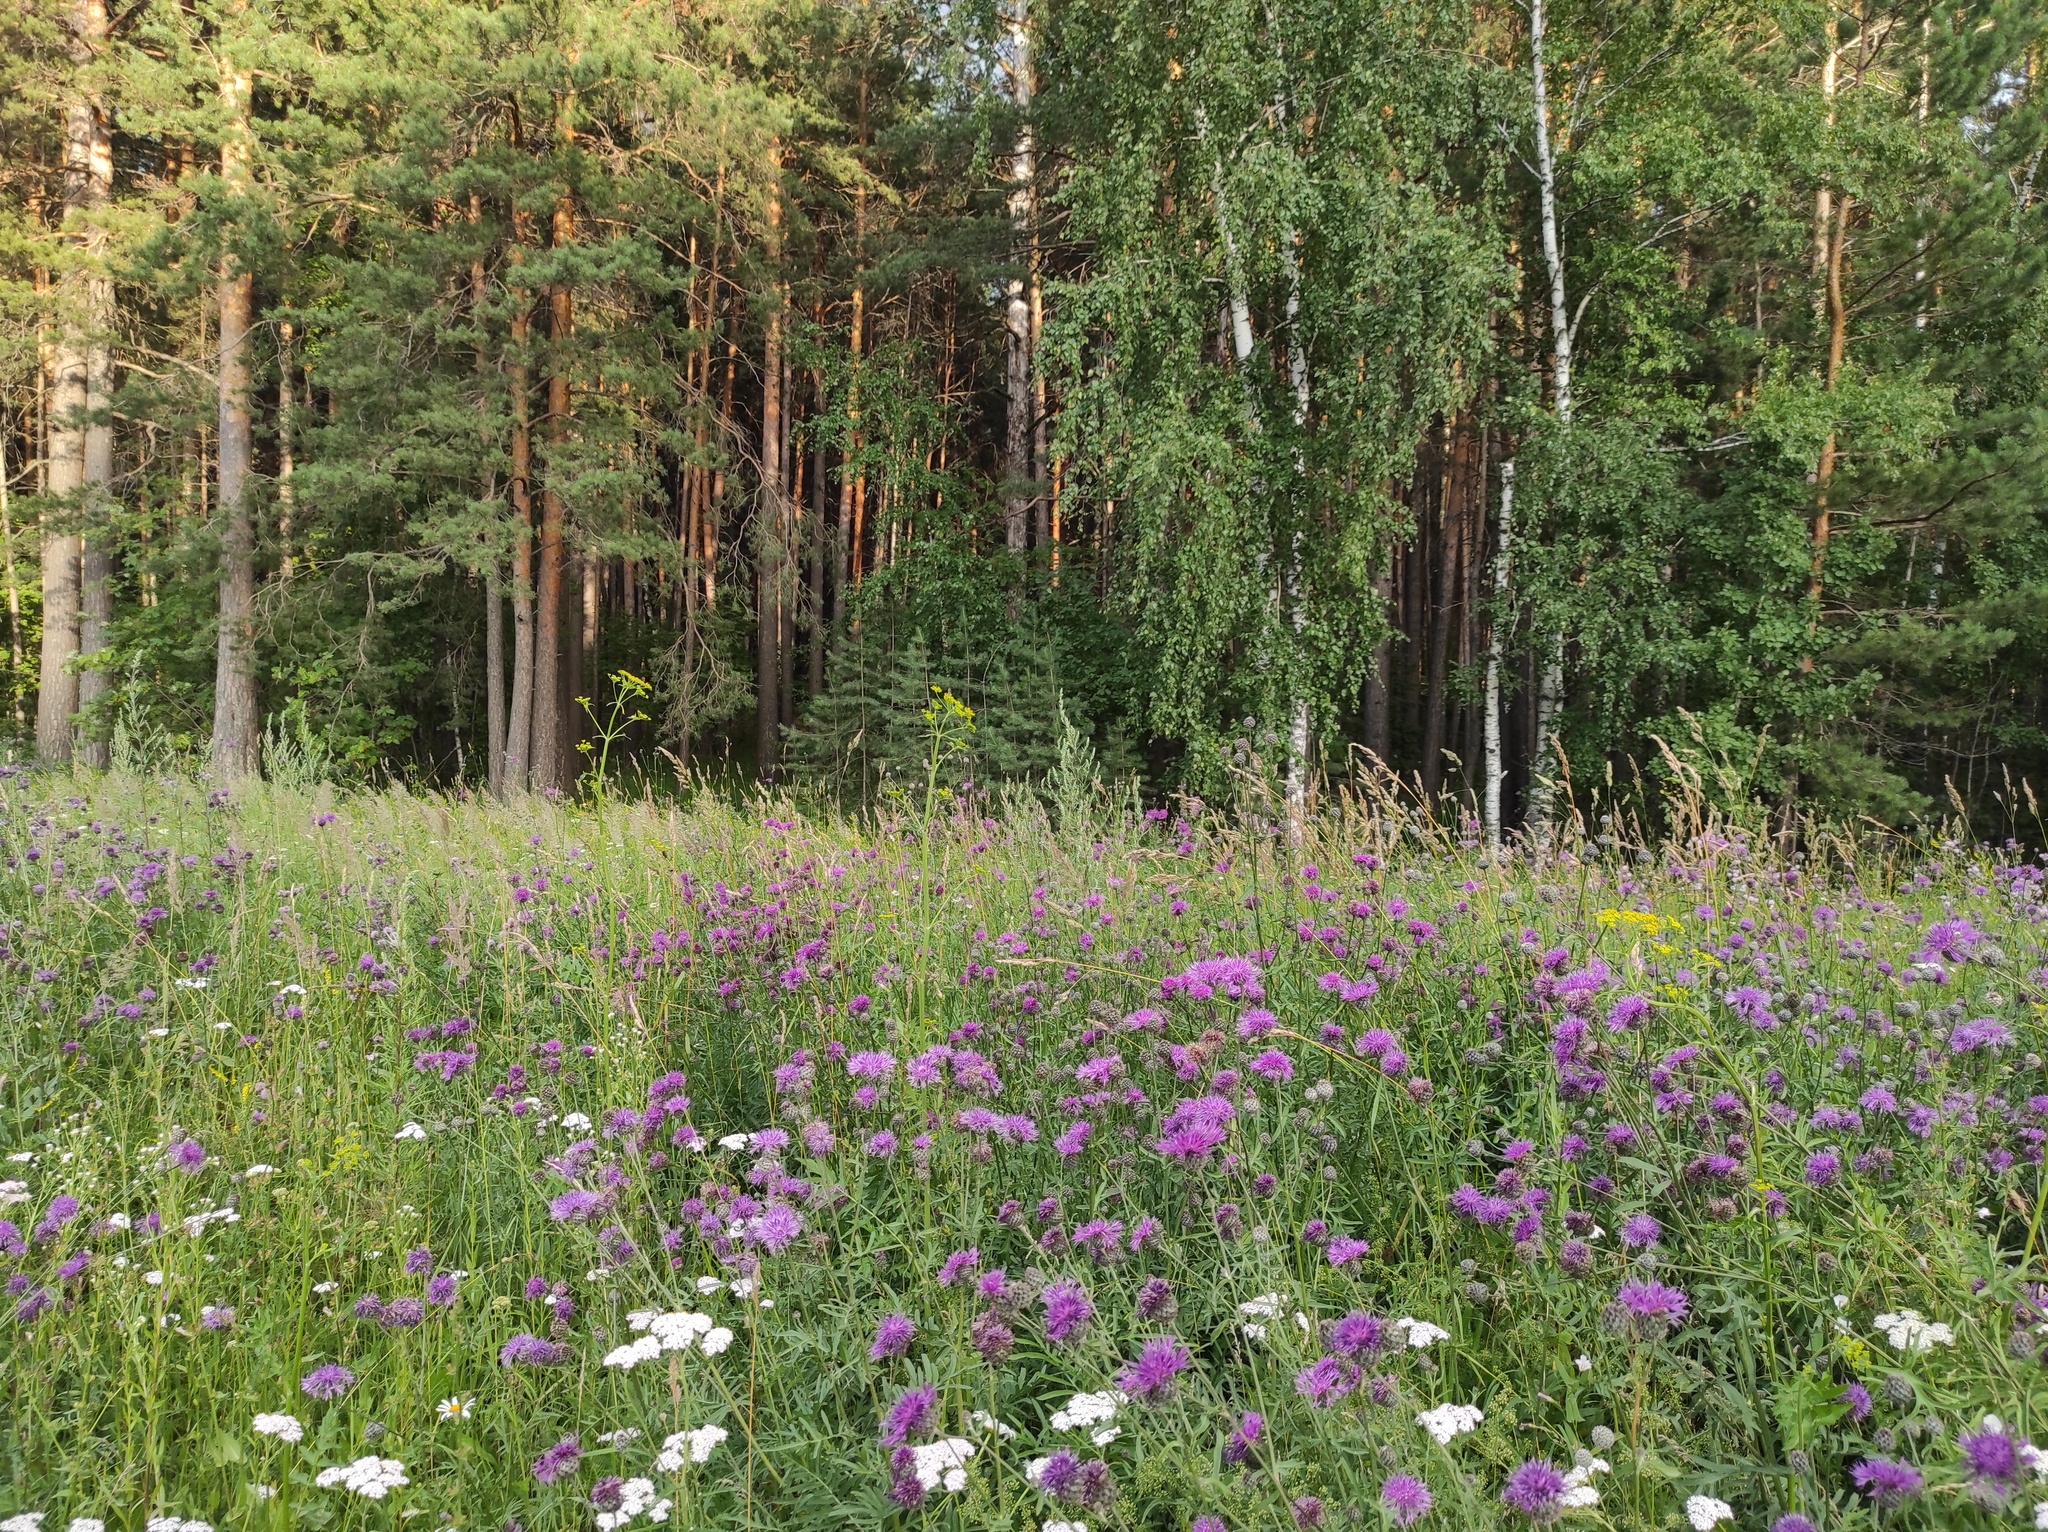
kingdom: Plantae
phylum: Tracheophyta
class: Magnoliopsida
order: Apiales
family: Apiaceae
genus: Pastinaca
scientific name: Pastinaca sativa
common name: Wild parsnip
